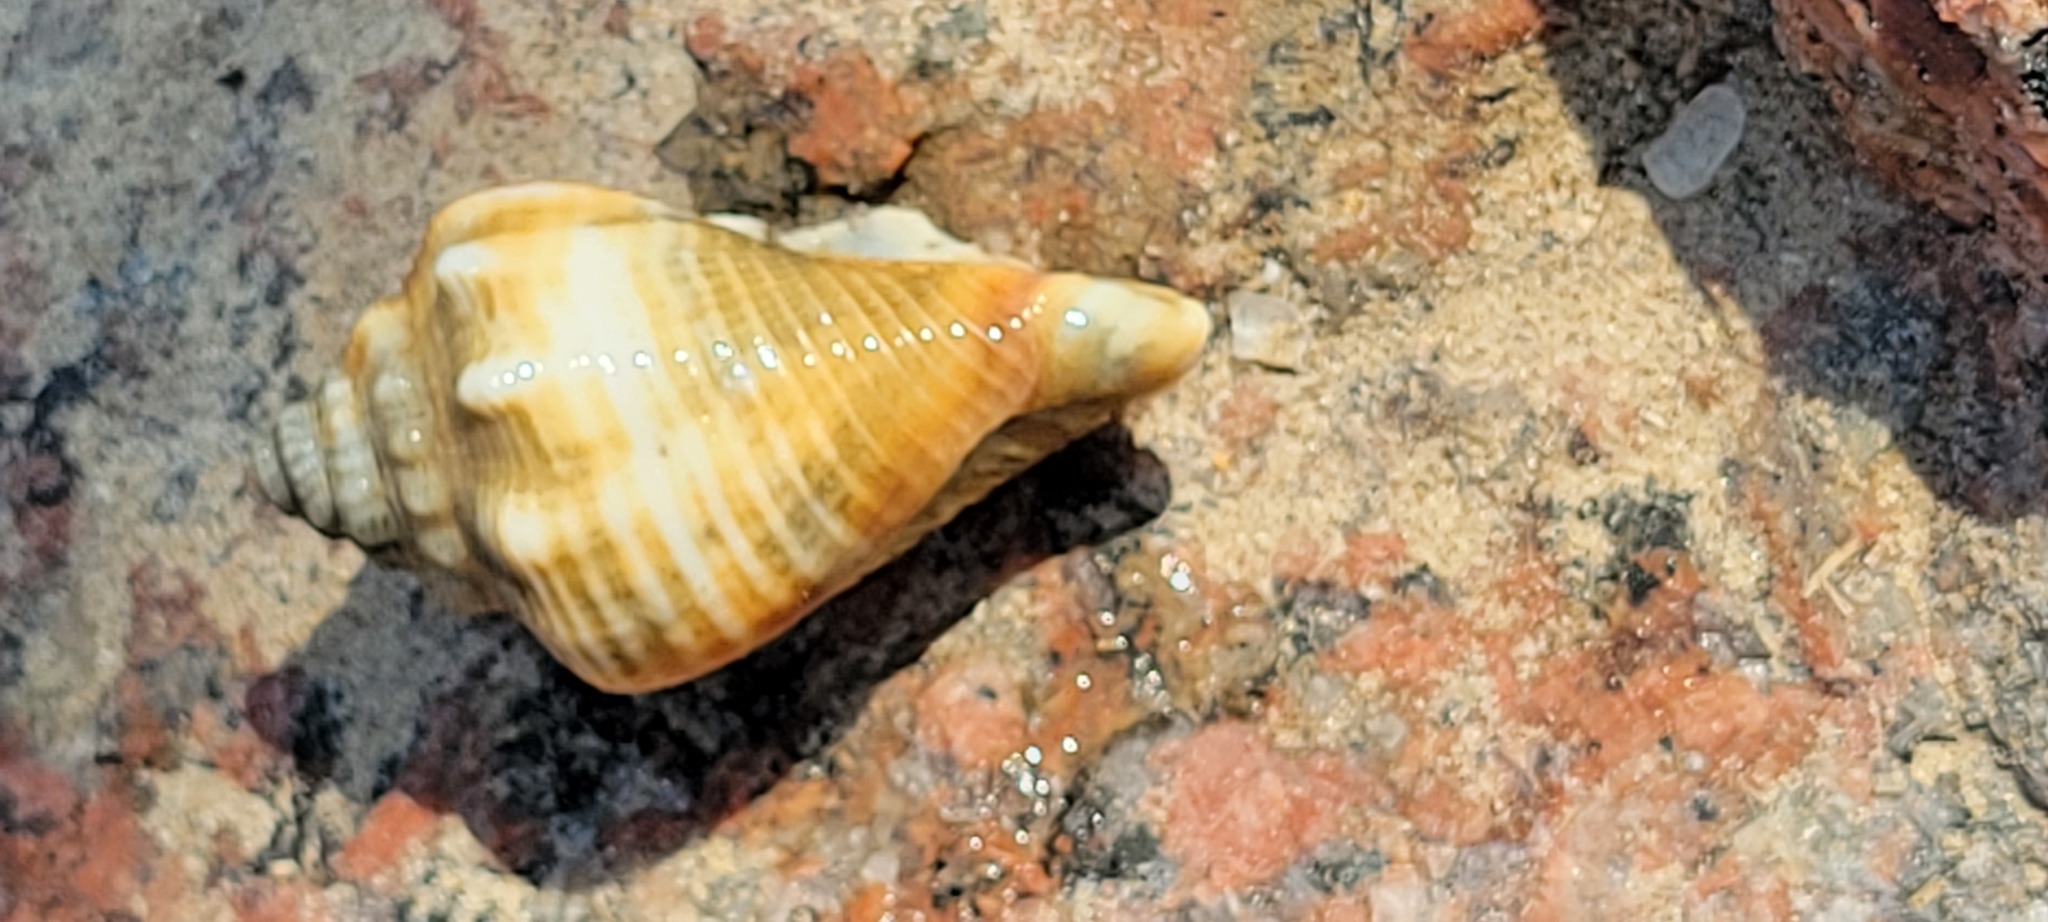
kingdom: Animalia
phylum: Mollusca
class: Gastropoda
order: Littorinimorpha
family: Strombidae
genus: Strombus
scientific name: Strombus alatus
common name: Florida fighting conch
